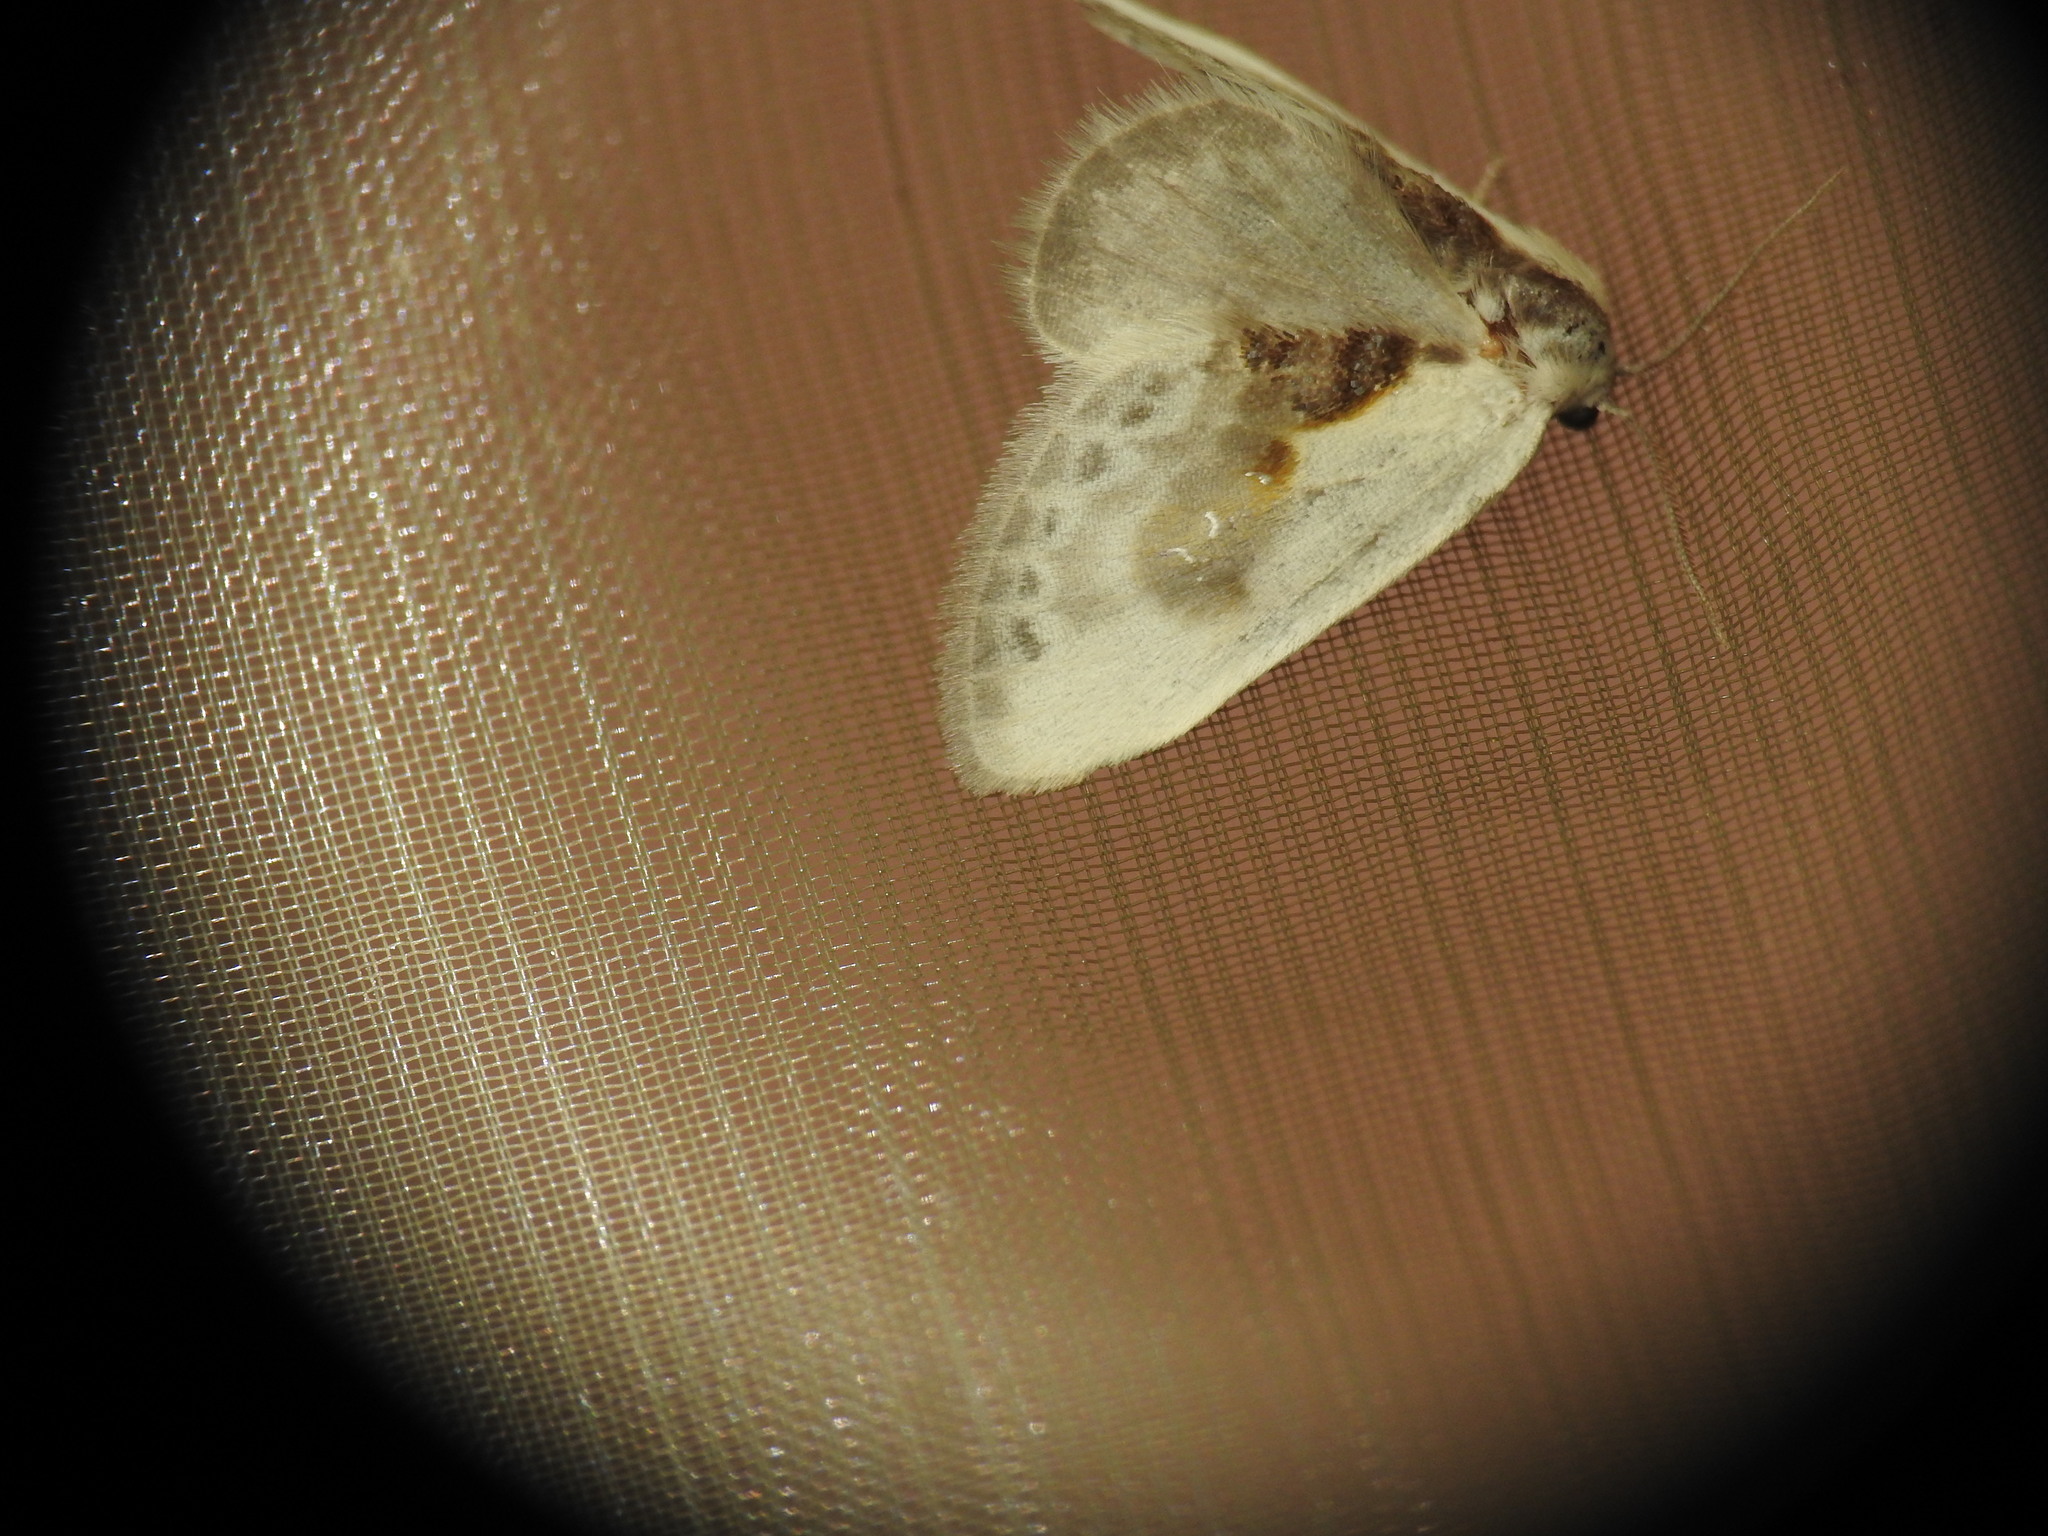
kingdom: Animalia
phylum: Arthropoda
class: Insecta
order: Lepidoptera
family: Drepanidae
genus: Cilix
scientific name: Cilix glaucata
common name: Chinese character
